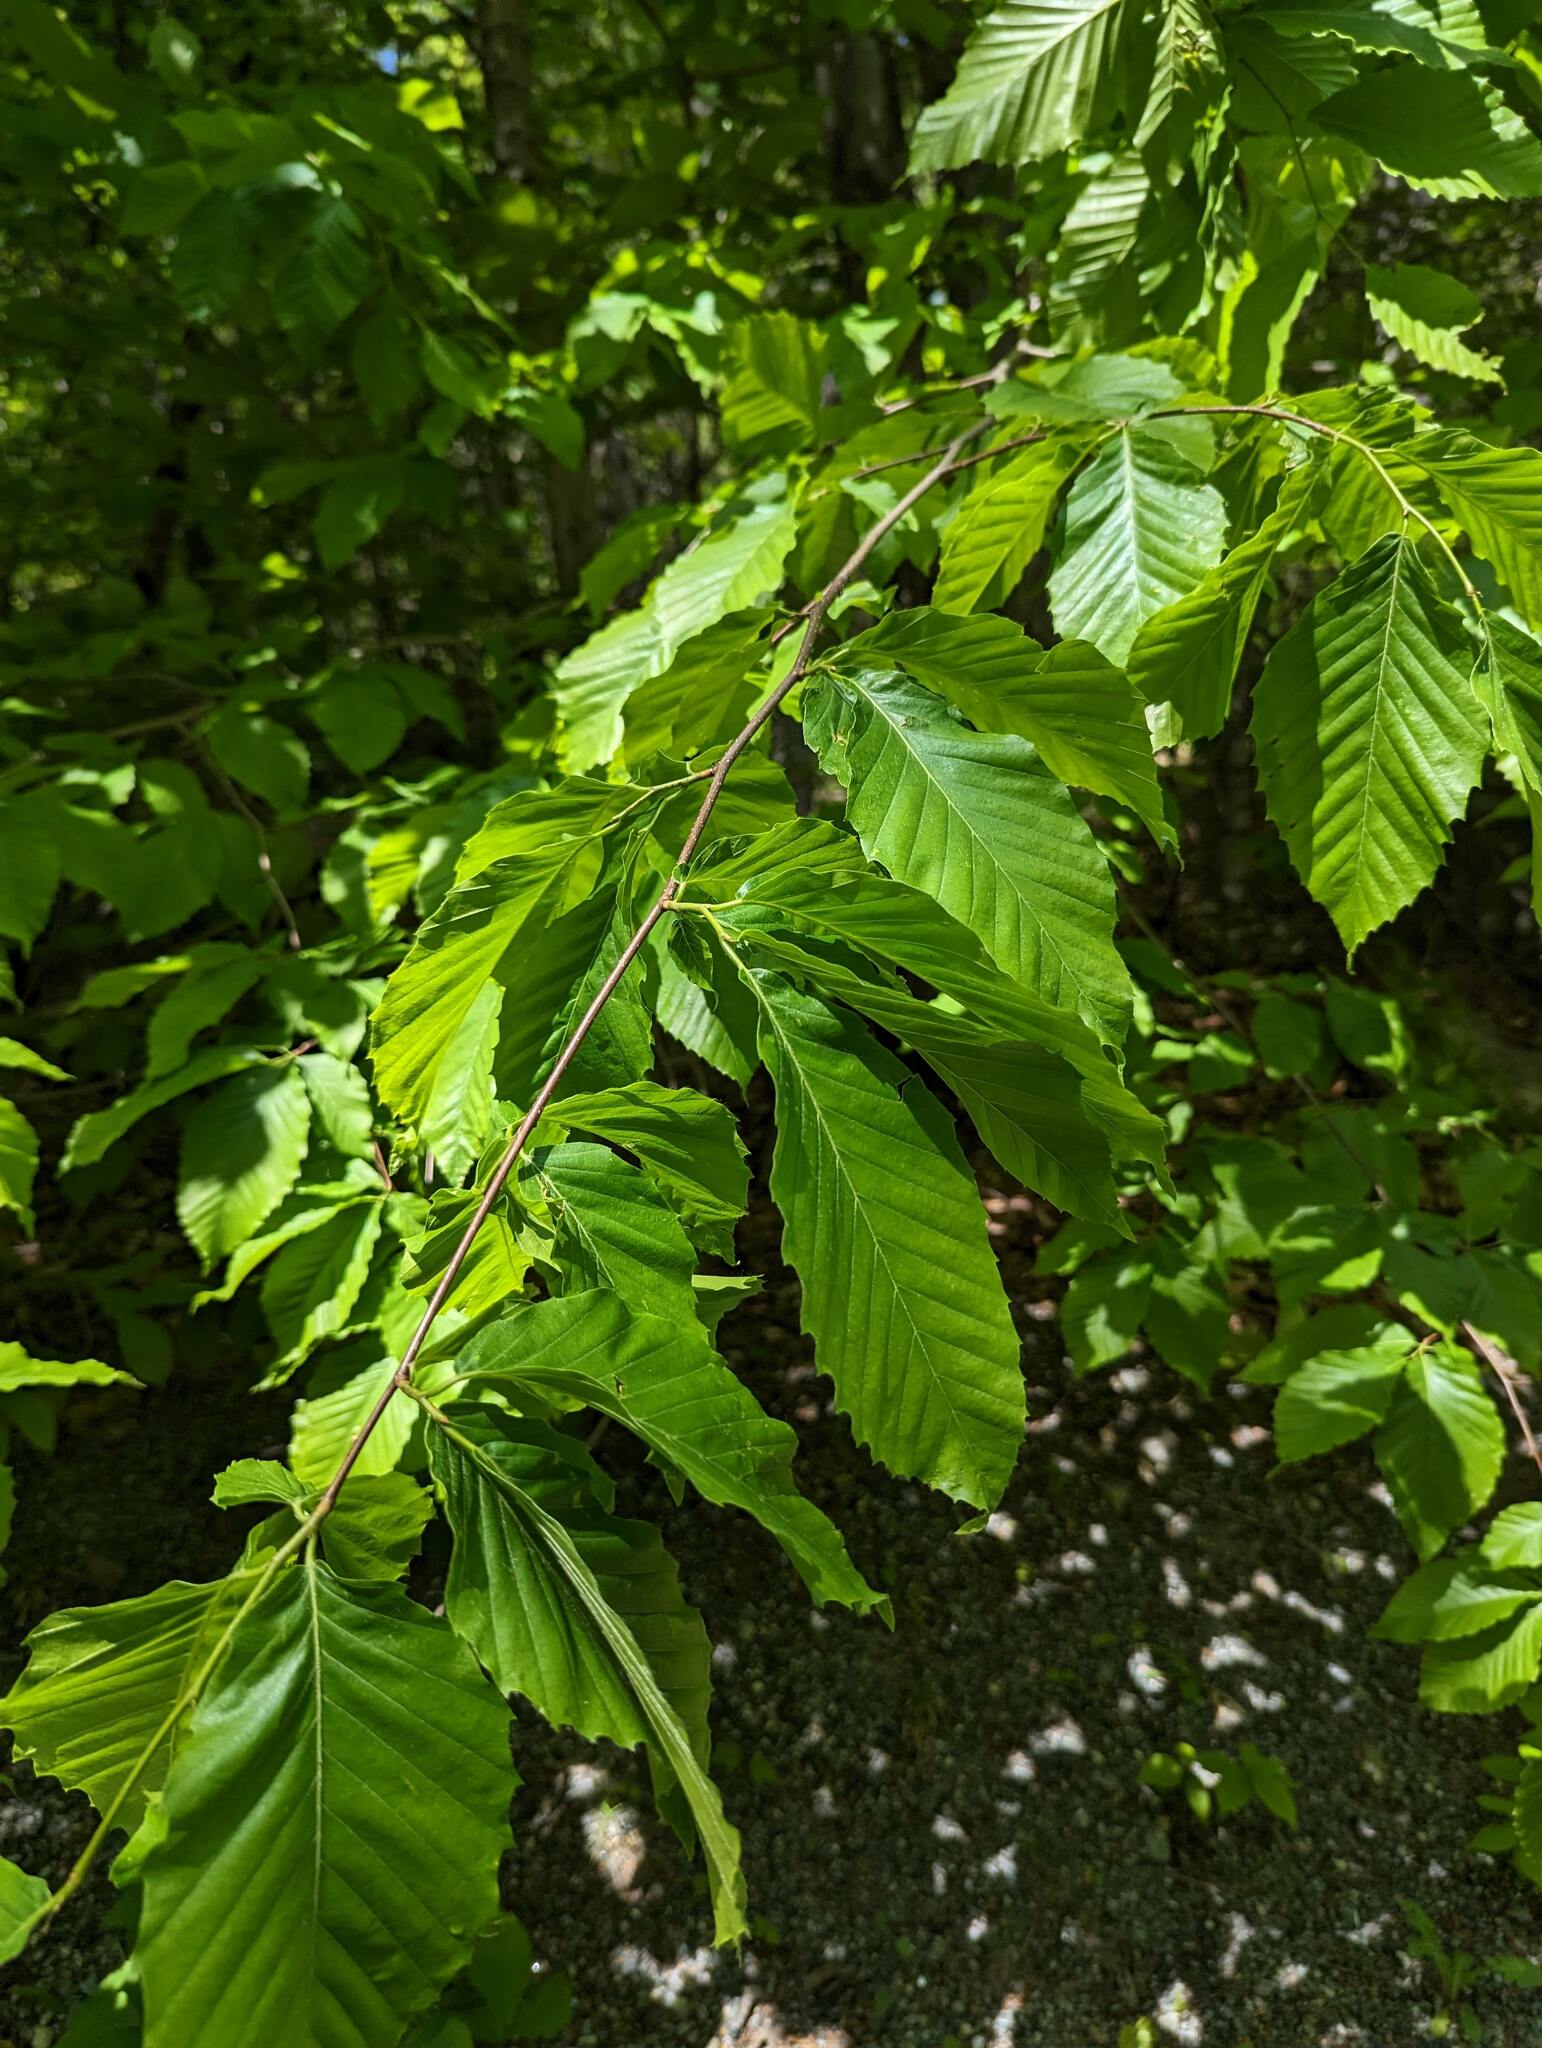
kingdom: Plantae
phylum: Tracheophyta
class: Magnoliopsida
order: Fagales
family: Fagaceae
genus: Fagus
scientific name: Fagus grandifolia
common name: American beech
